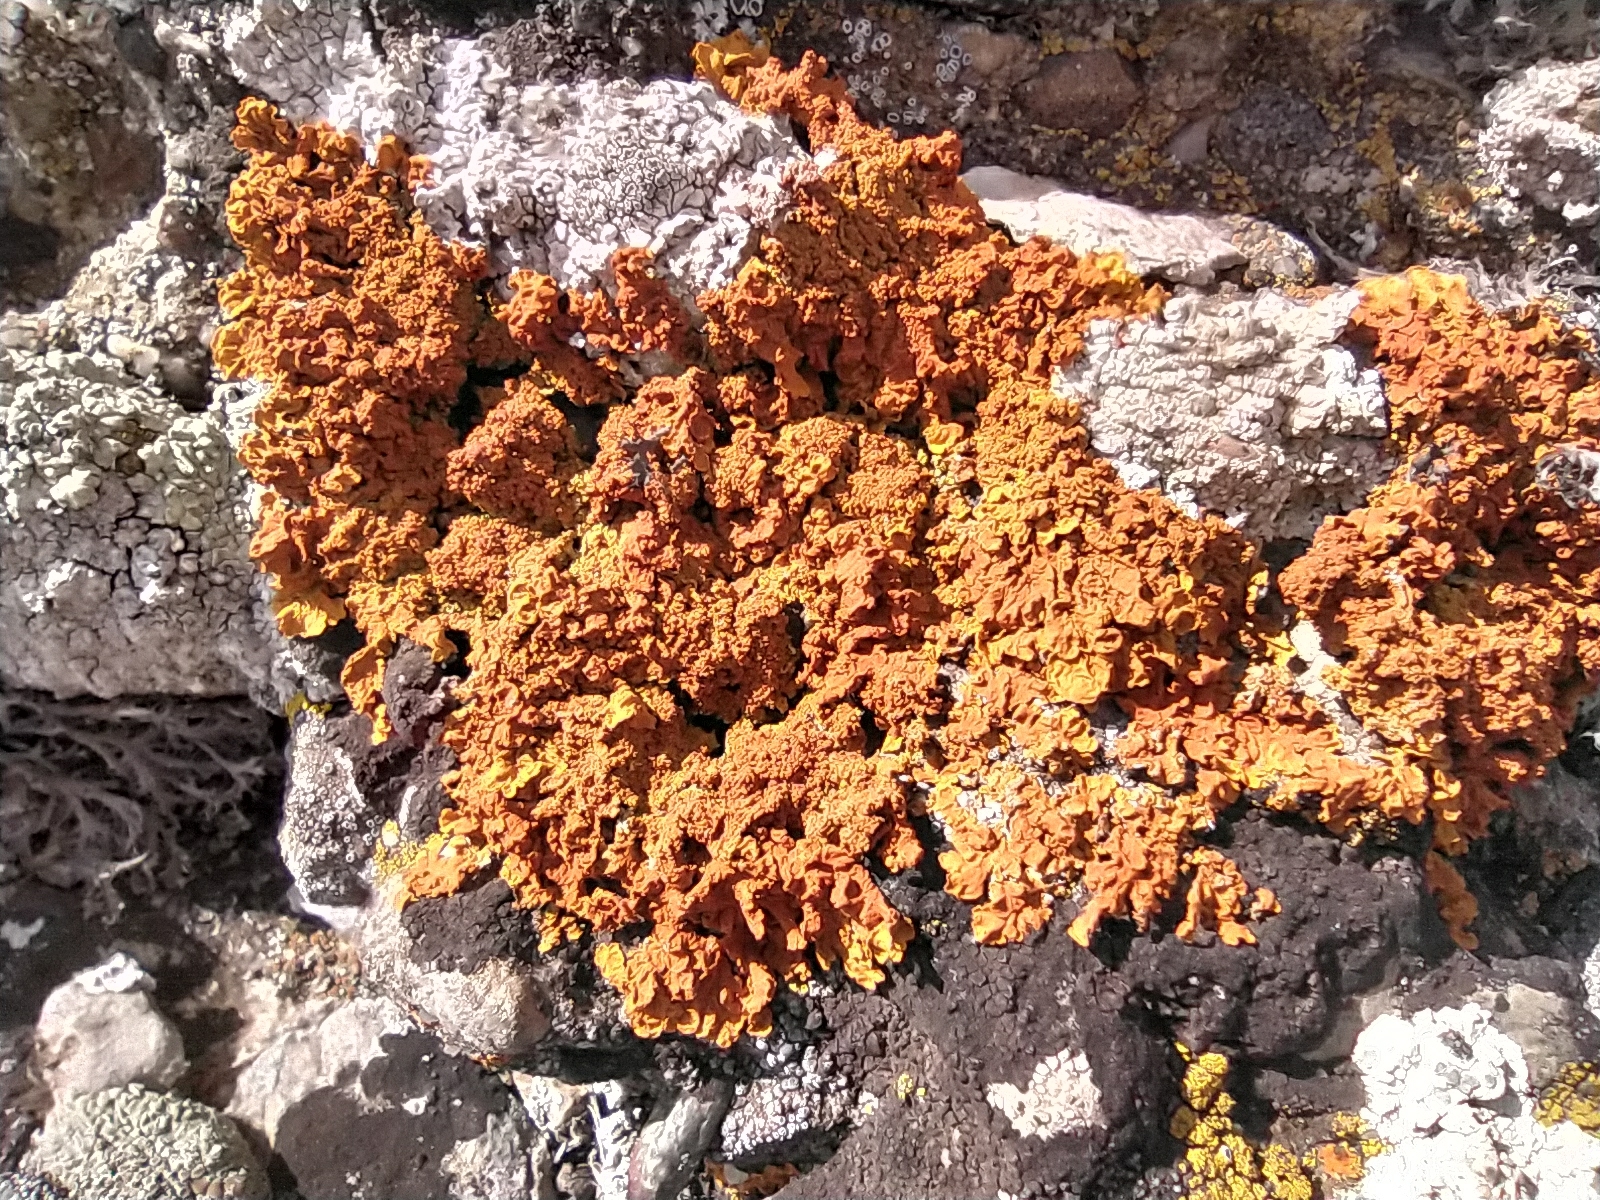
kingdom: Fungi
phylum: Ascomycota
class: Lecanoromycetes
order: Teloschistales
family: Teloschistaceae
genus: Xanthoria
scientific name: Xanthoria calcicola
